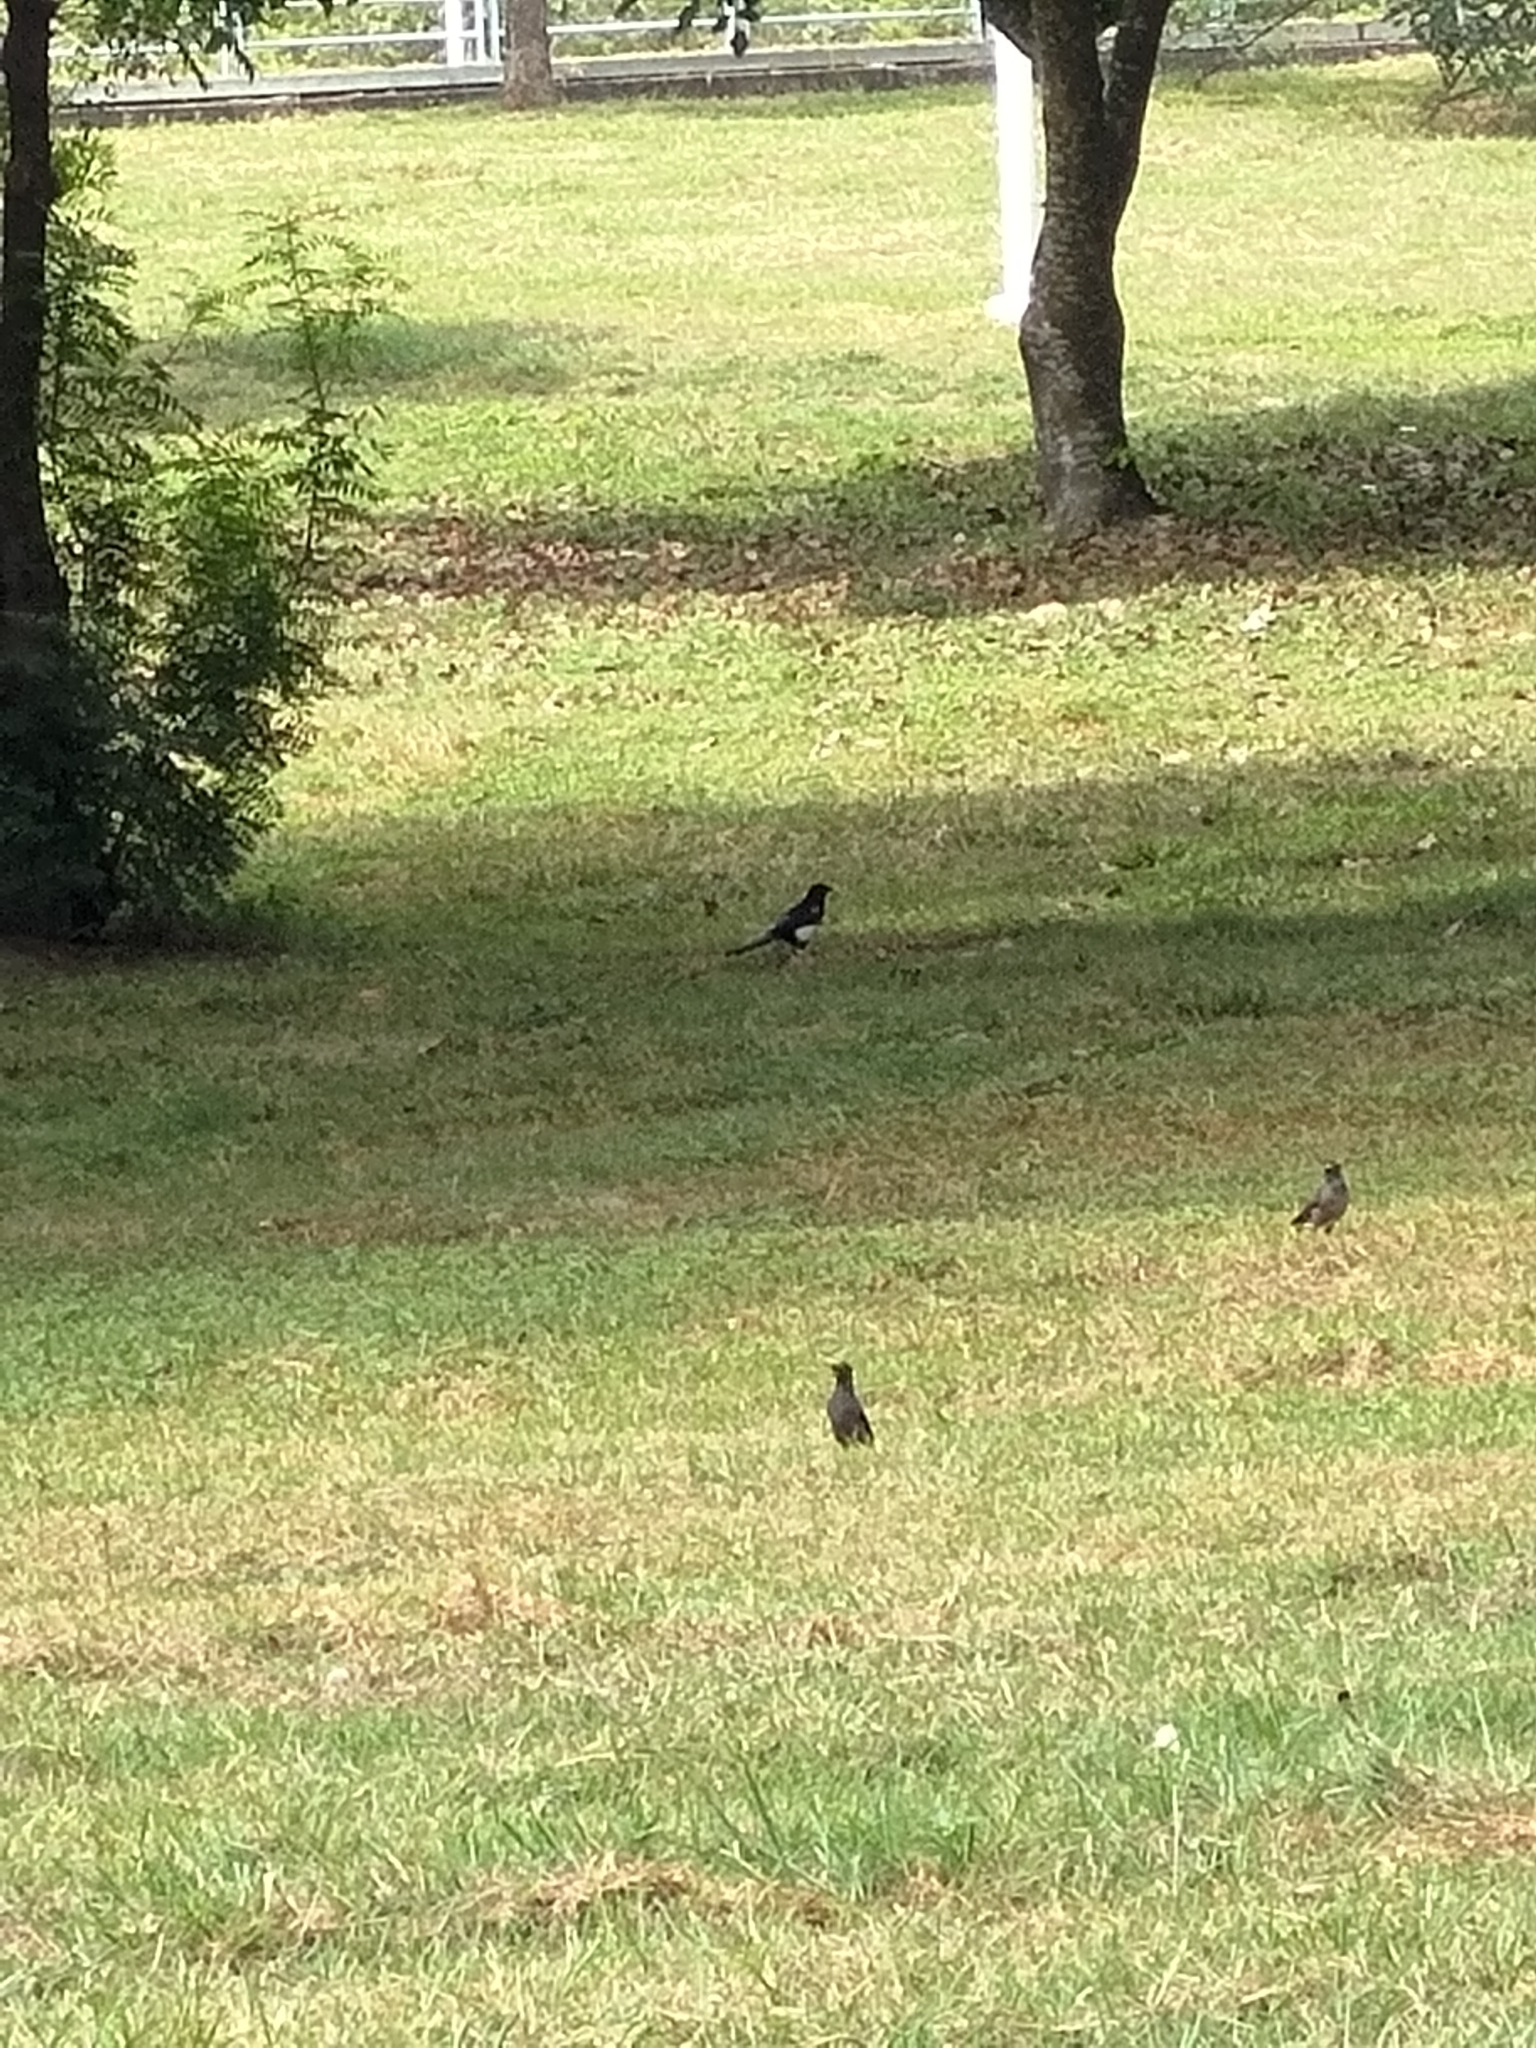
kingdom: Animalia
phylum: Chordata
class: Aves
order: Passeriformes
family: Corvidae
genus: Pica
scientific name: Pica serica
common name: Oriental magpie
